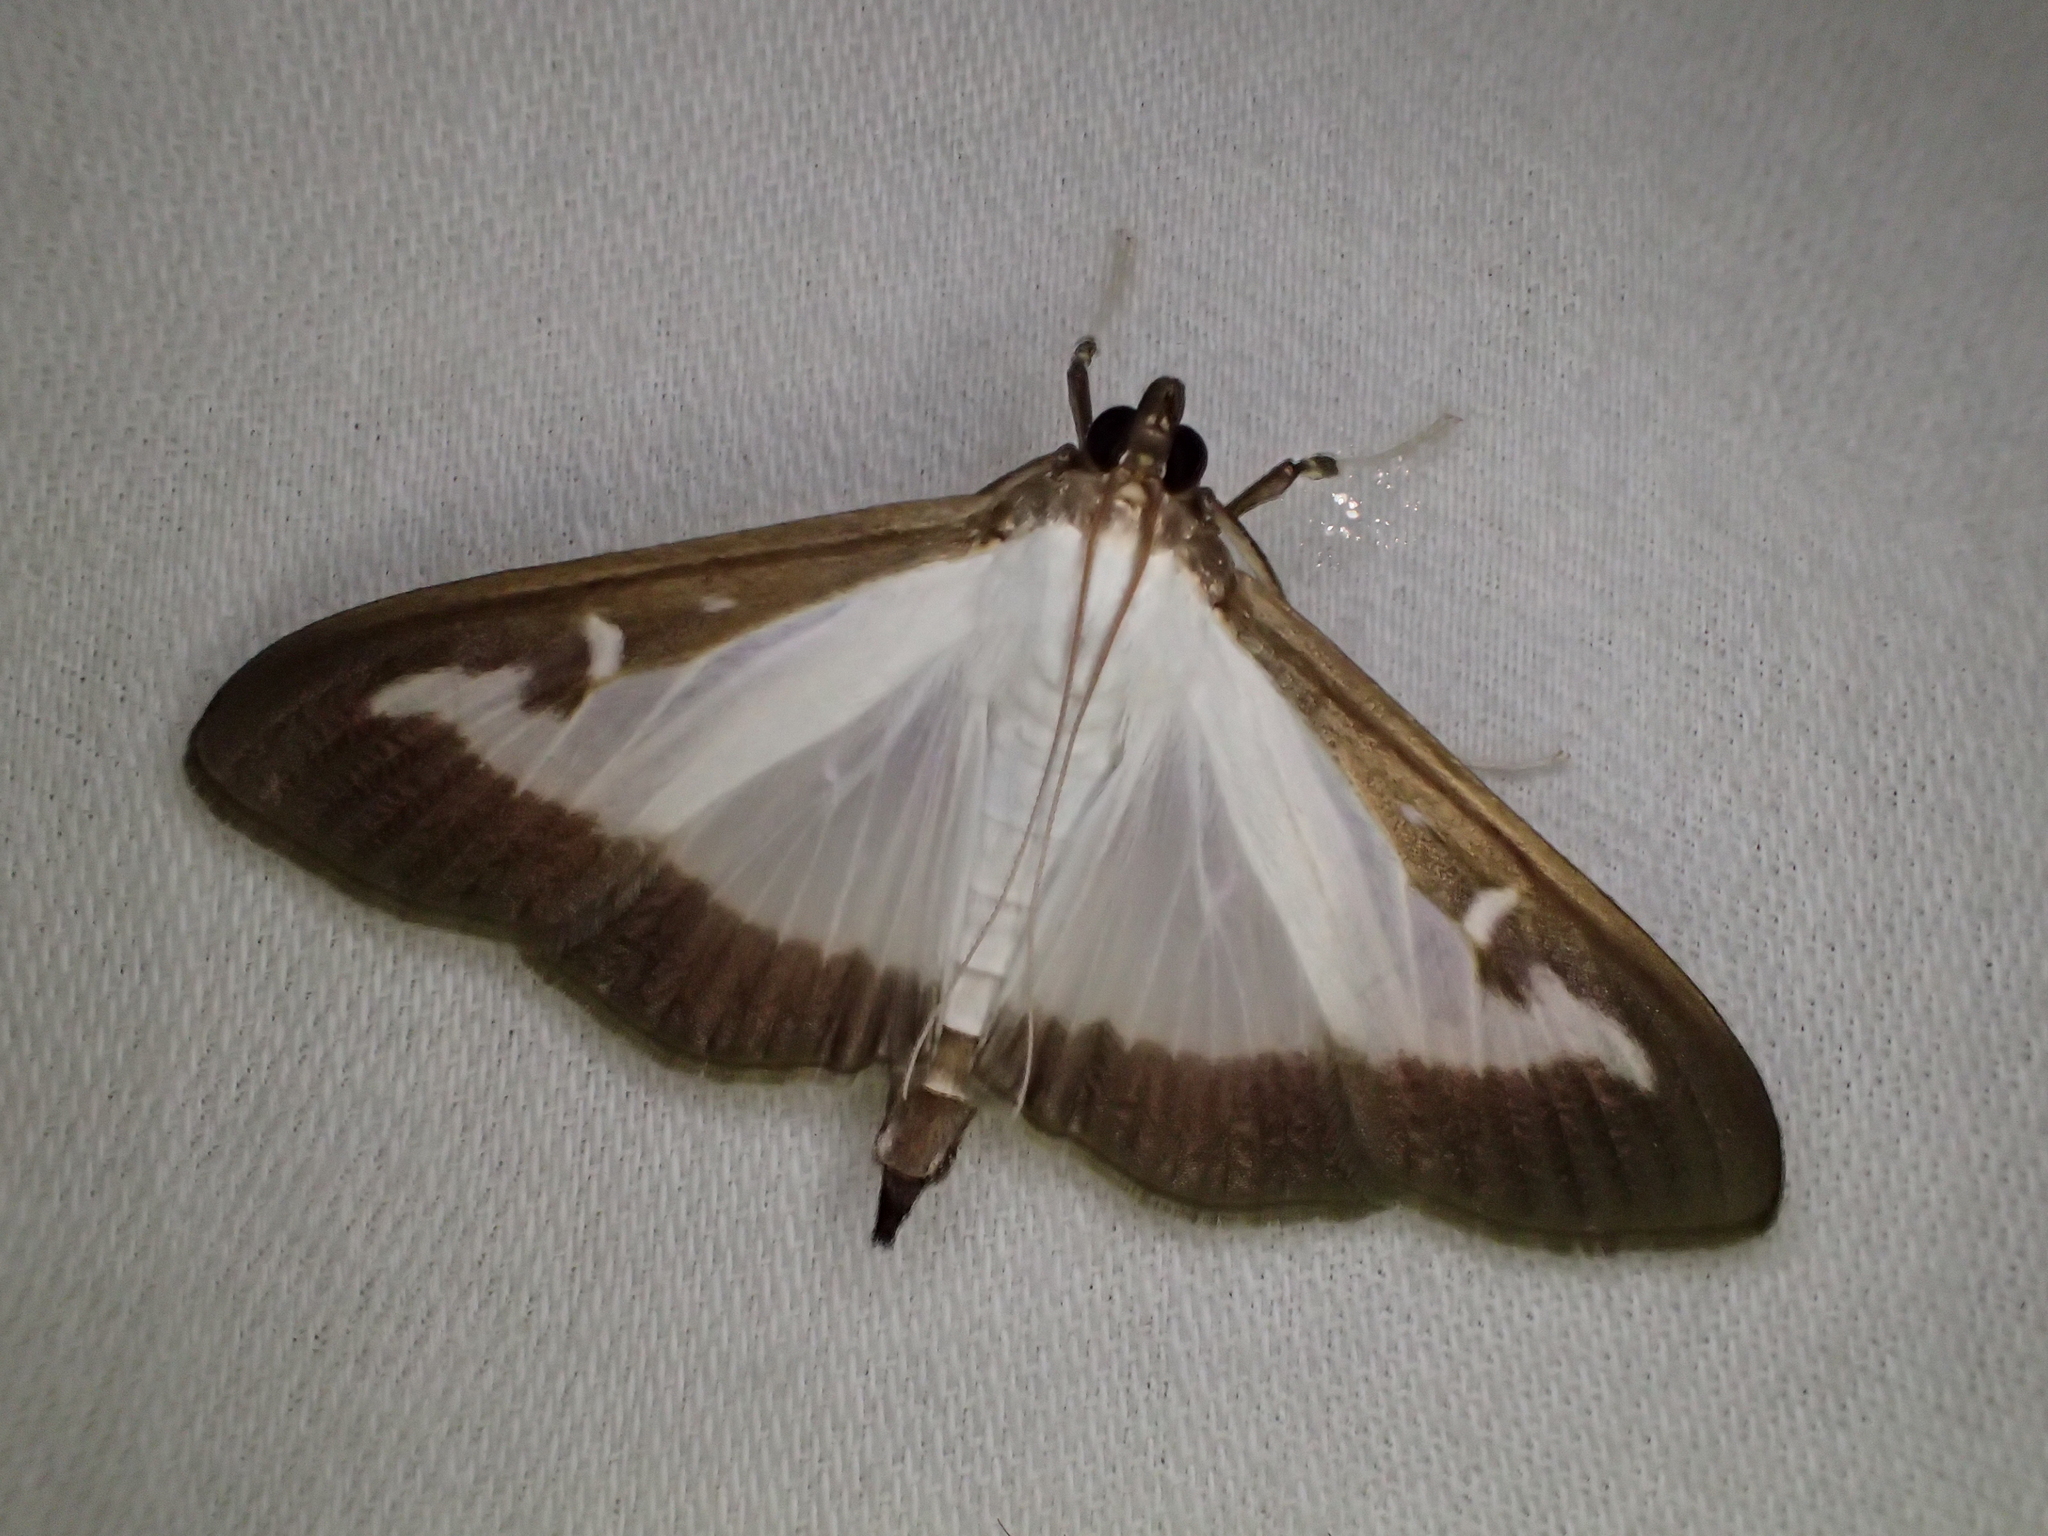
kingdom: Animalia
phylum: Arthropoda
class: Insecta
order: Lepidoptera
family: Crambidae
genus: Cydalima
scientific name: Cydalima perspectalis
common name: Box tree moth
